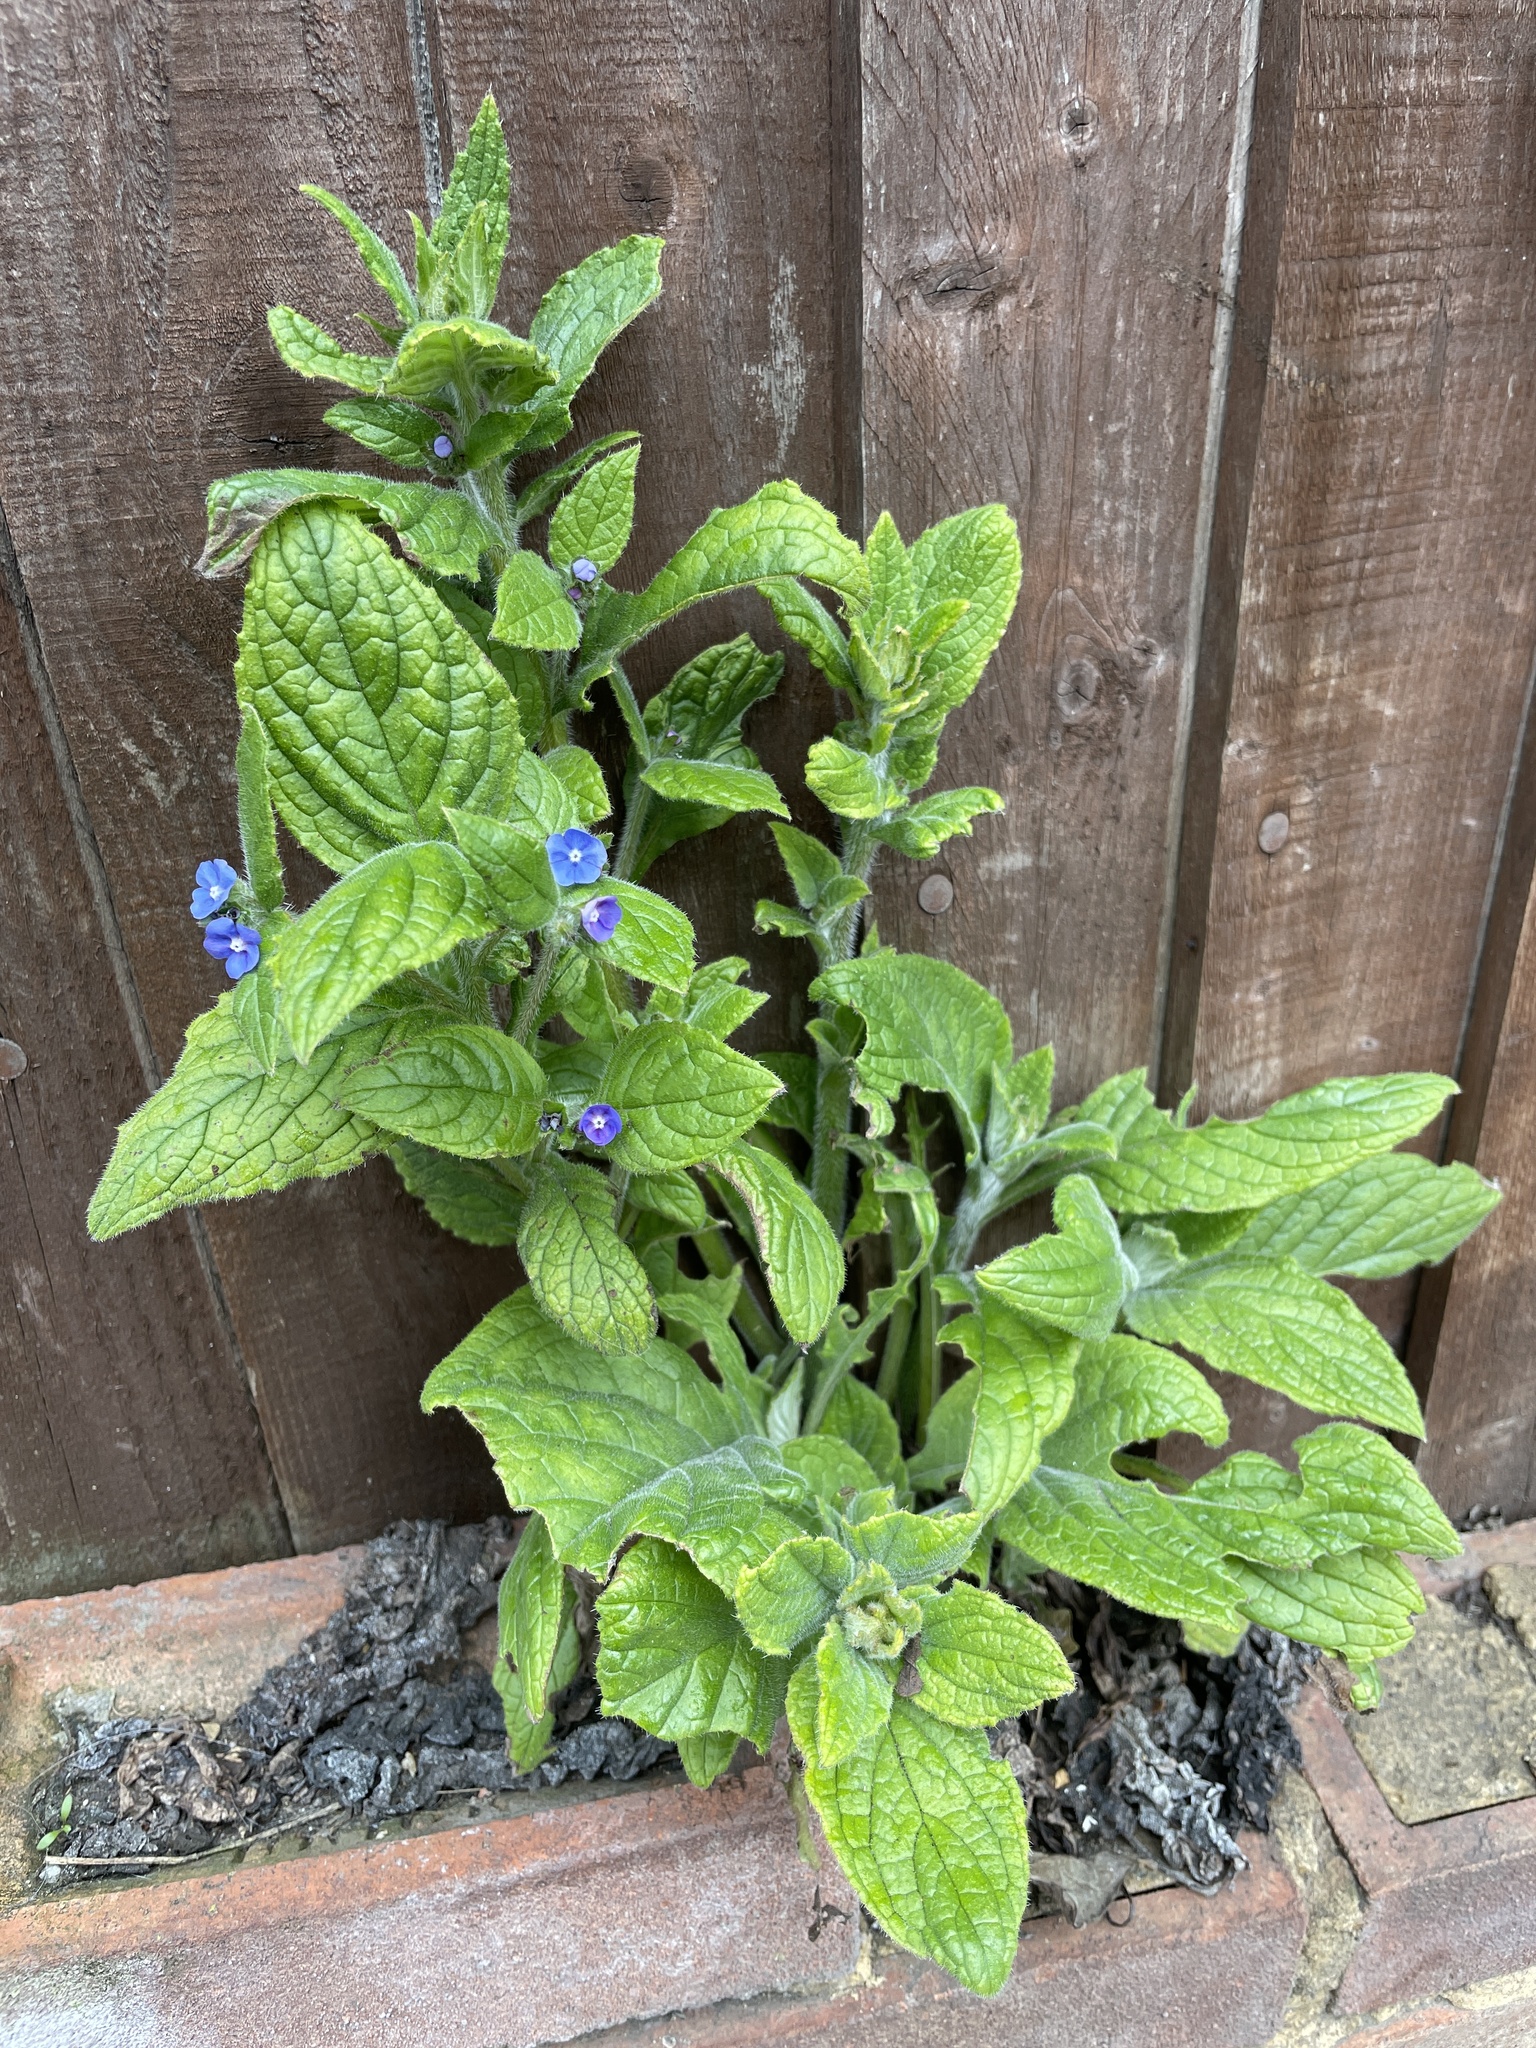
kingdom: Plantae
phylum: Tracheophyta
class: Magnoliopsida
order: Boraginales
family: Boraginaceae
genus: Pentaglottis
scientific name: Pentaglottis sempervirens
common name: Green alkanet
